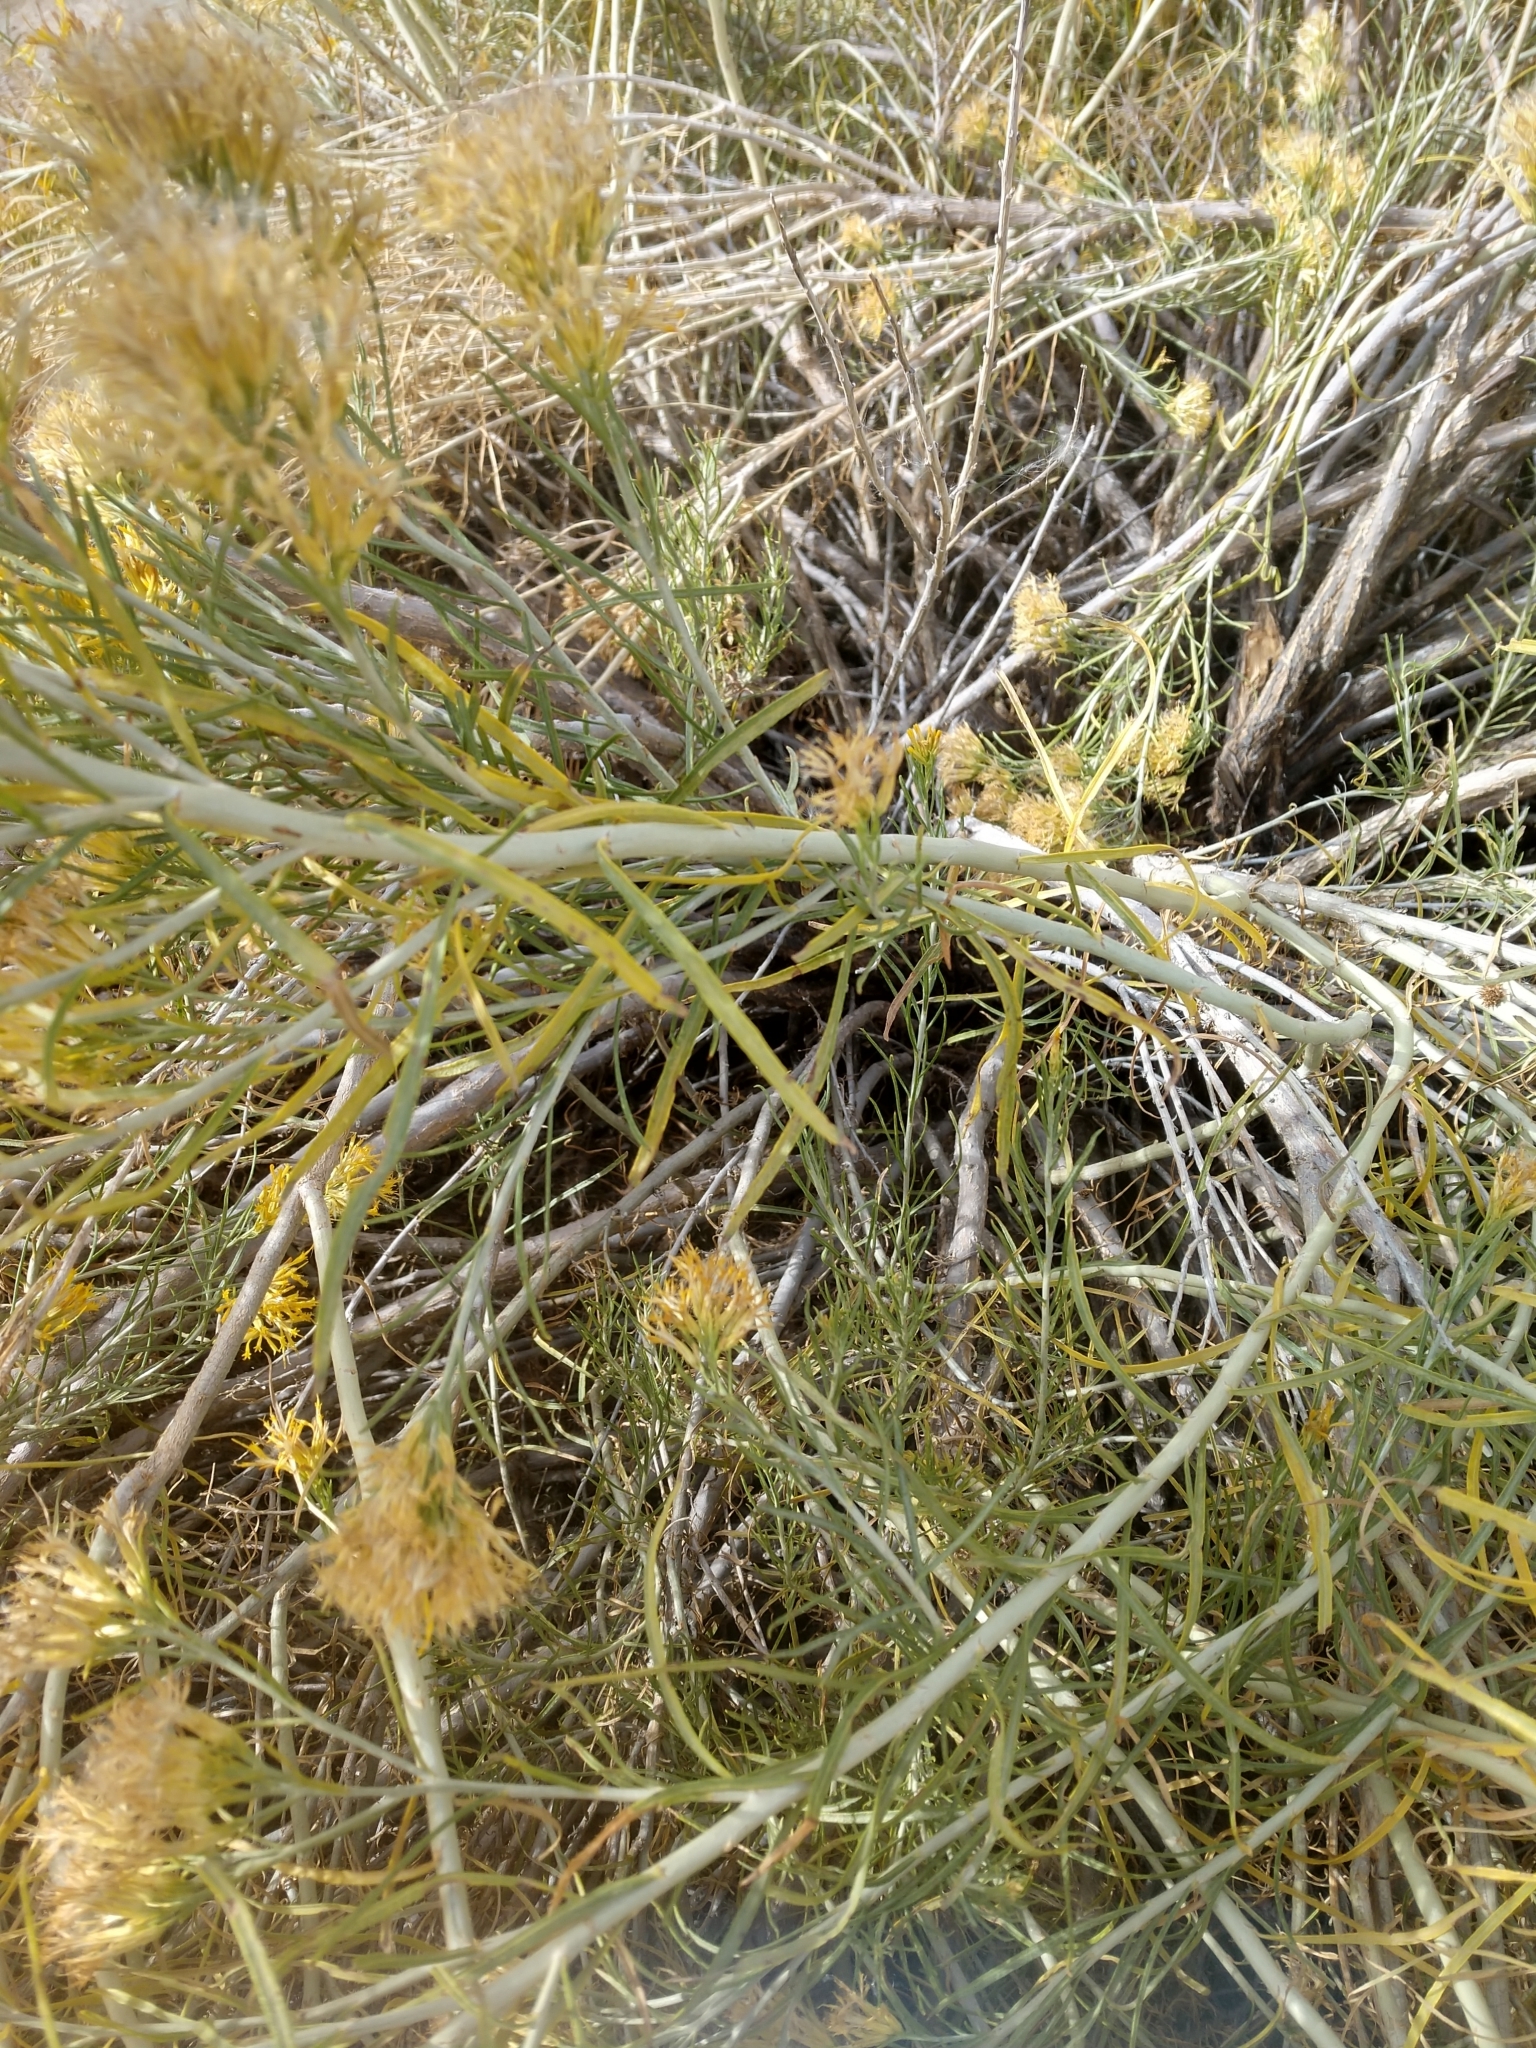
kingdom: Plantae
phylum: Tracheophyta
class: Magnoliopsida
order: Asterales
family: Asteraceae
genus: Ericameria
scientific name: Ericameria nauseosa
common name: Rubber rabbitbrush
